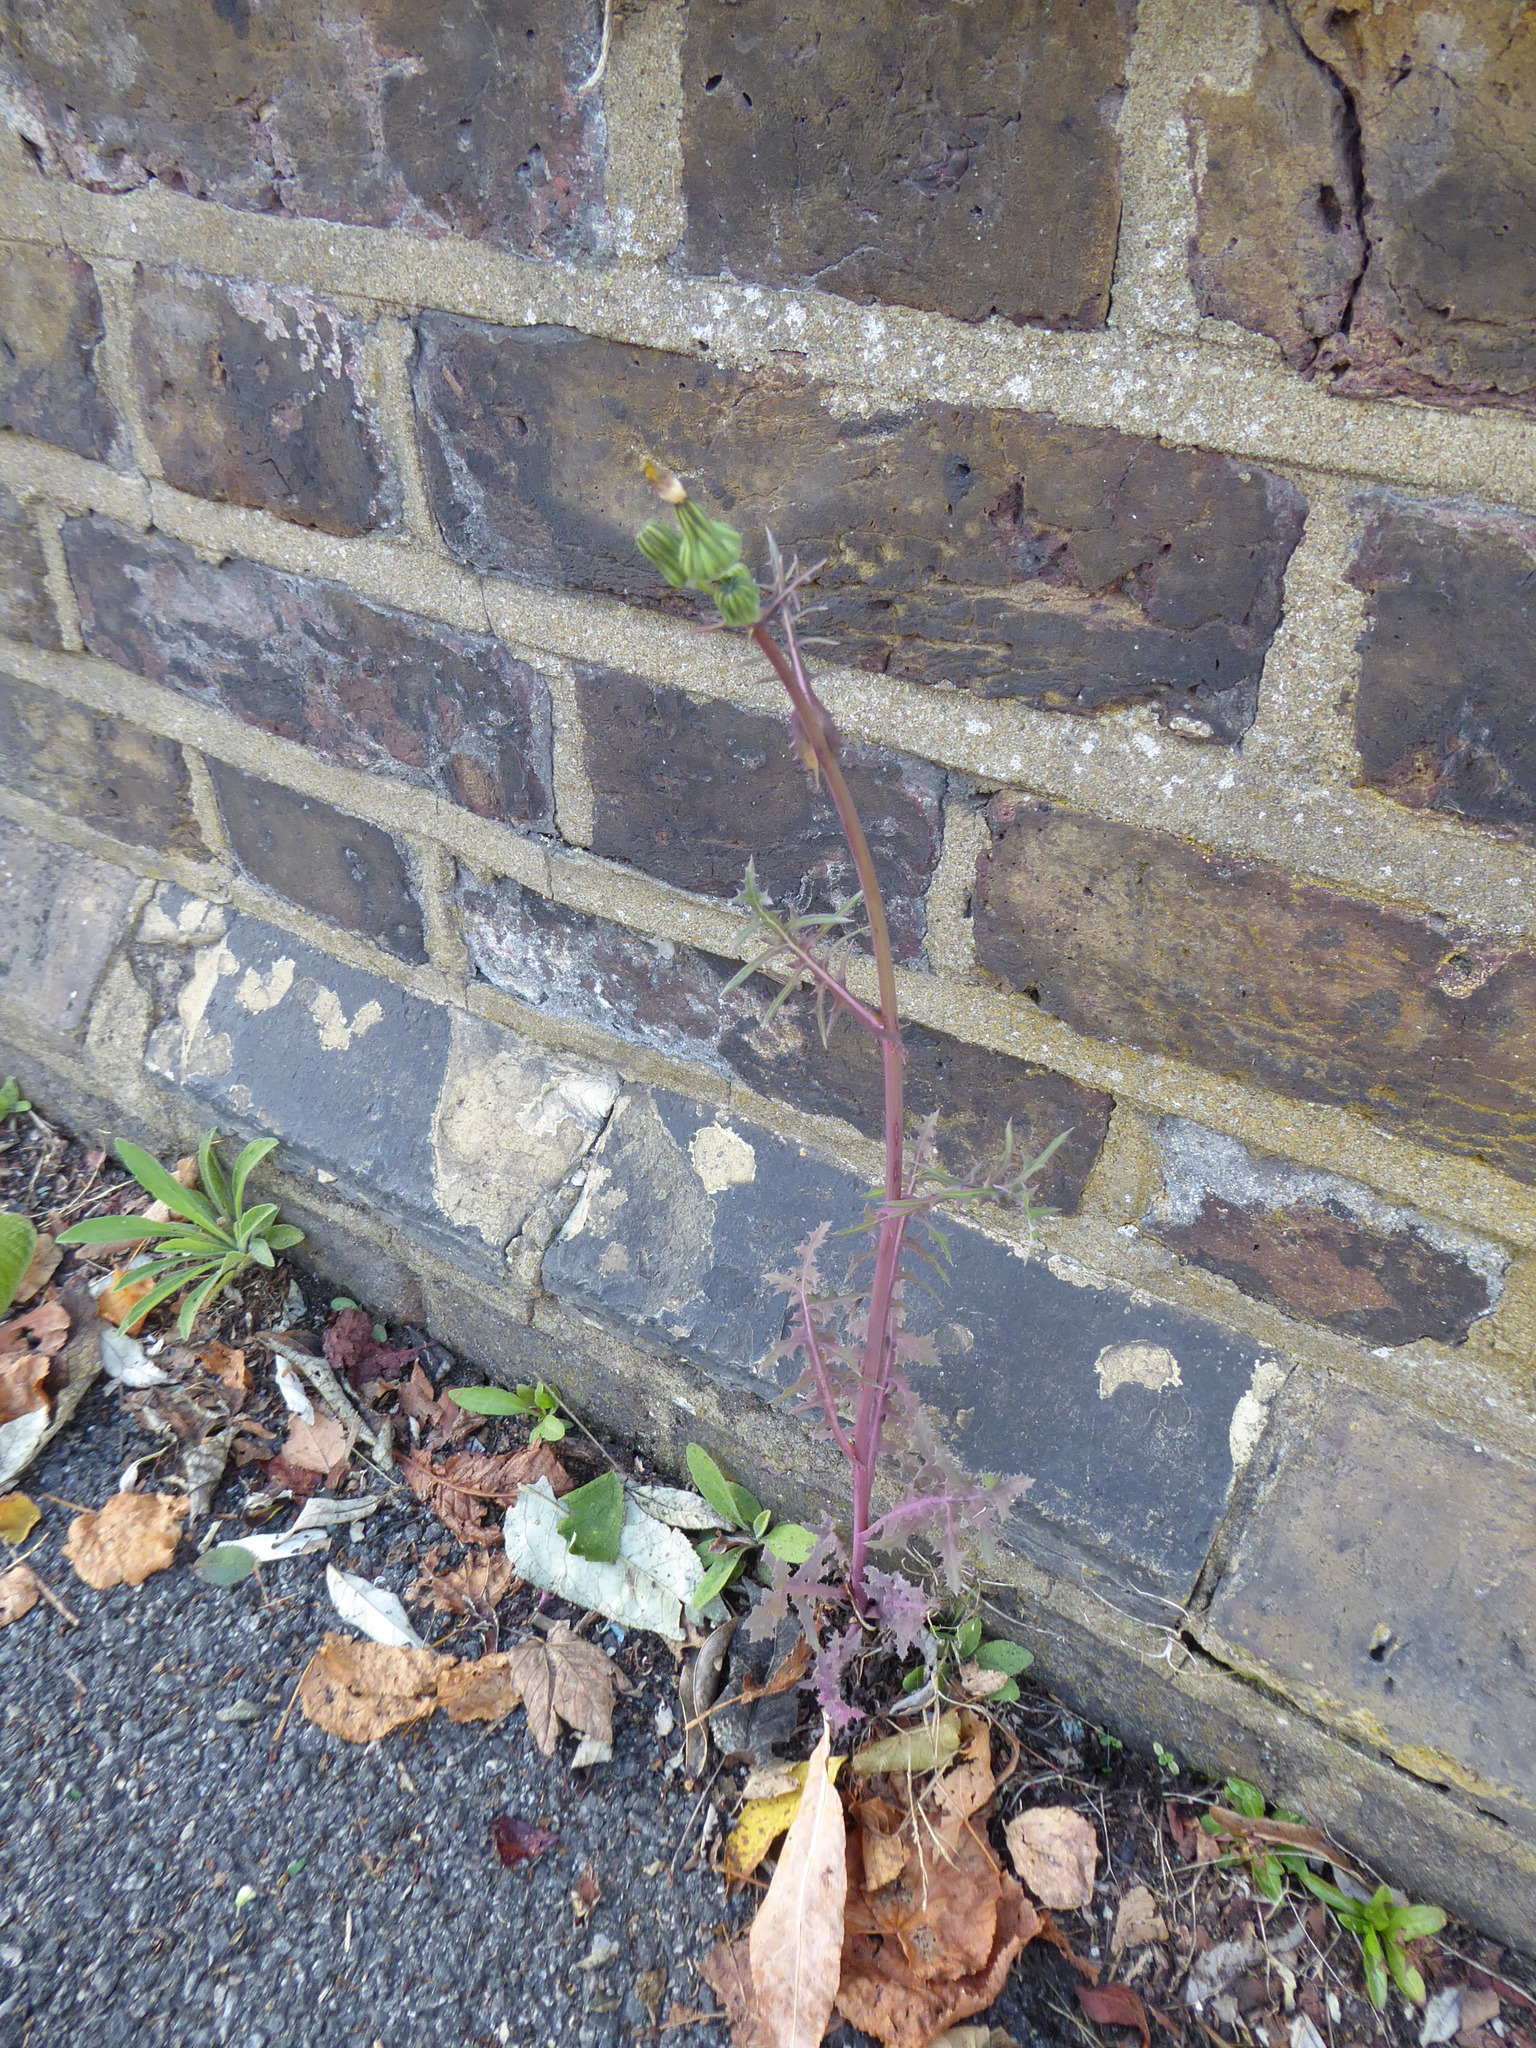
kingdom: Plantae
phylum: Tracheophyta
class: Magnoliopsida
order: Asterales
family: Asteraceae
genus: Sonchus
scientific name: Sonchus oleraceus
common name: Common sowthistle
